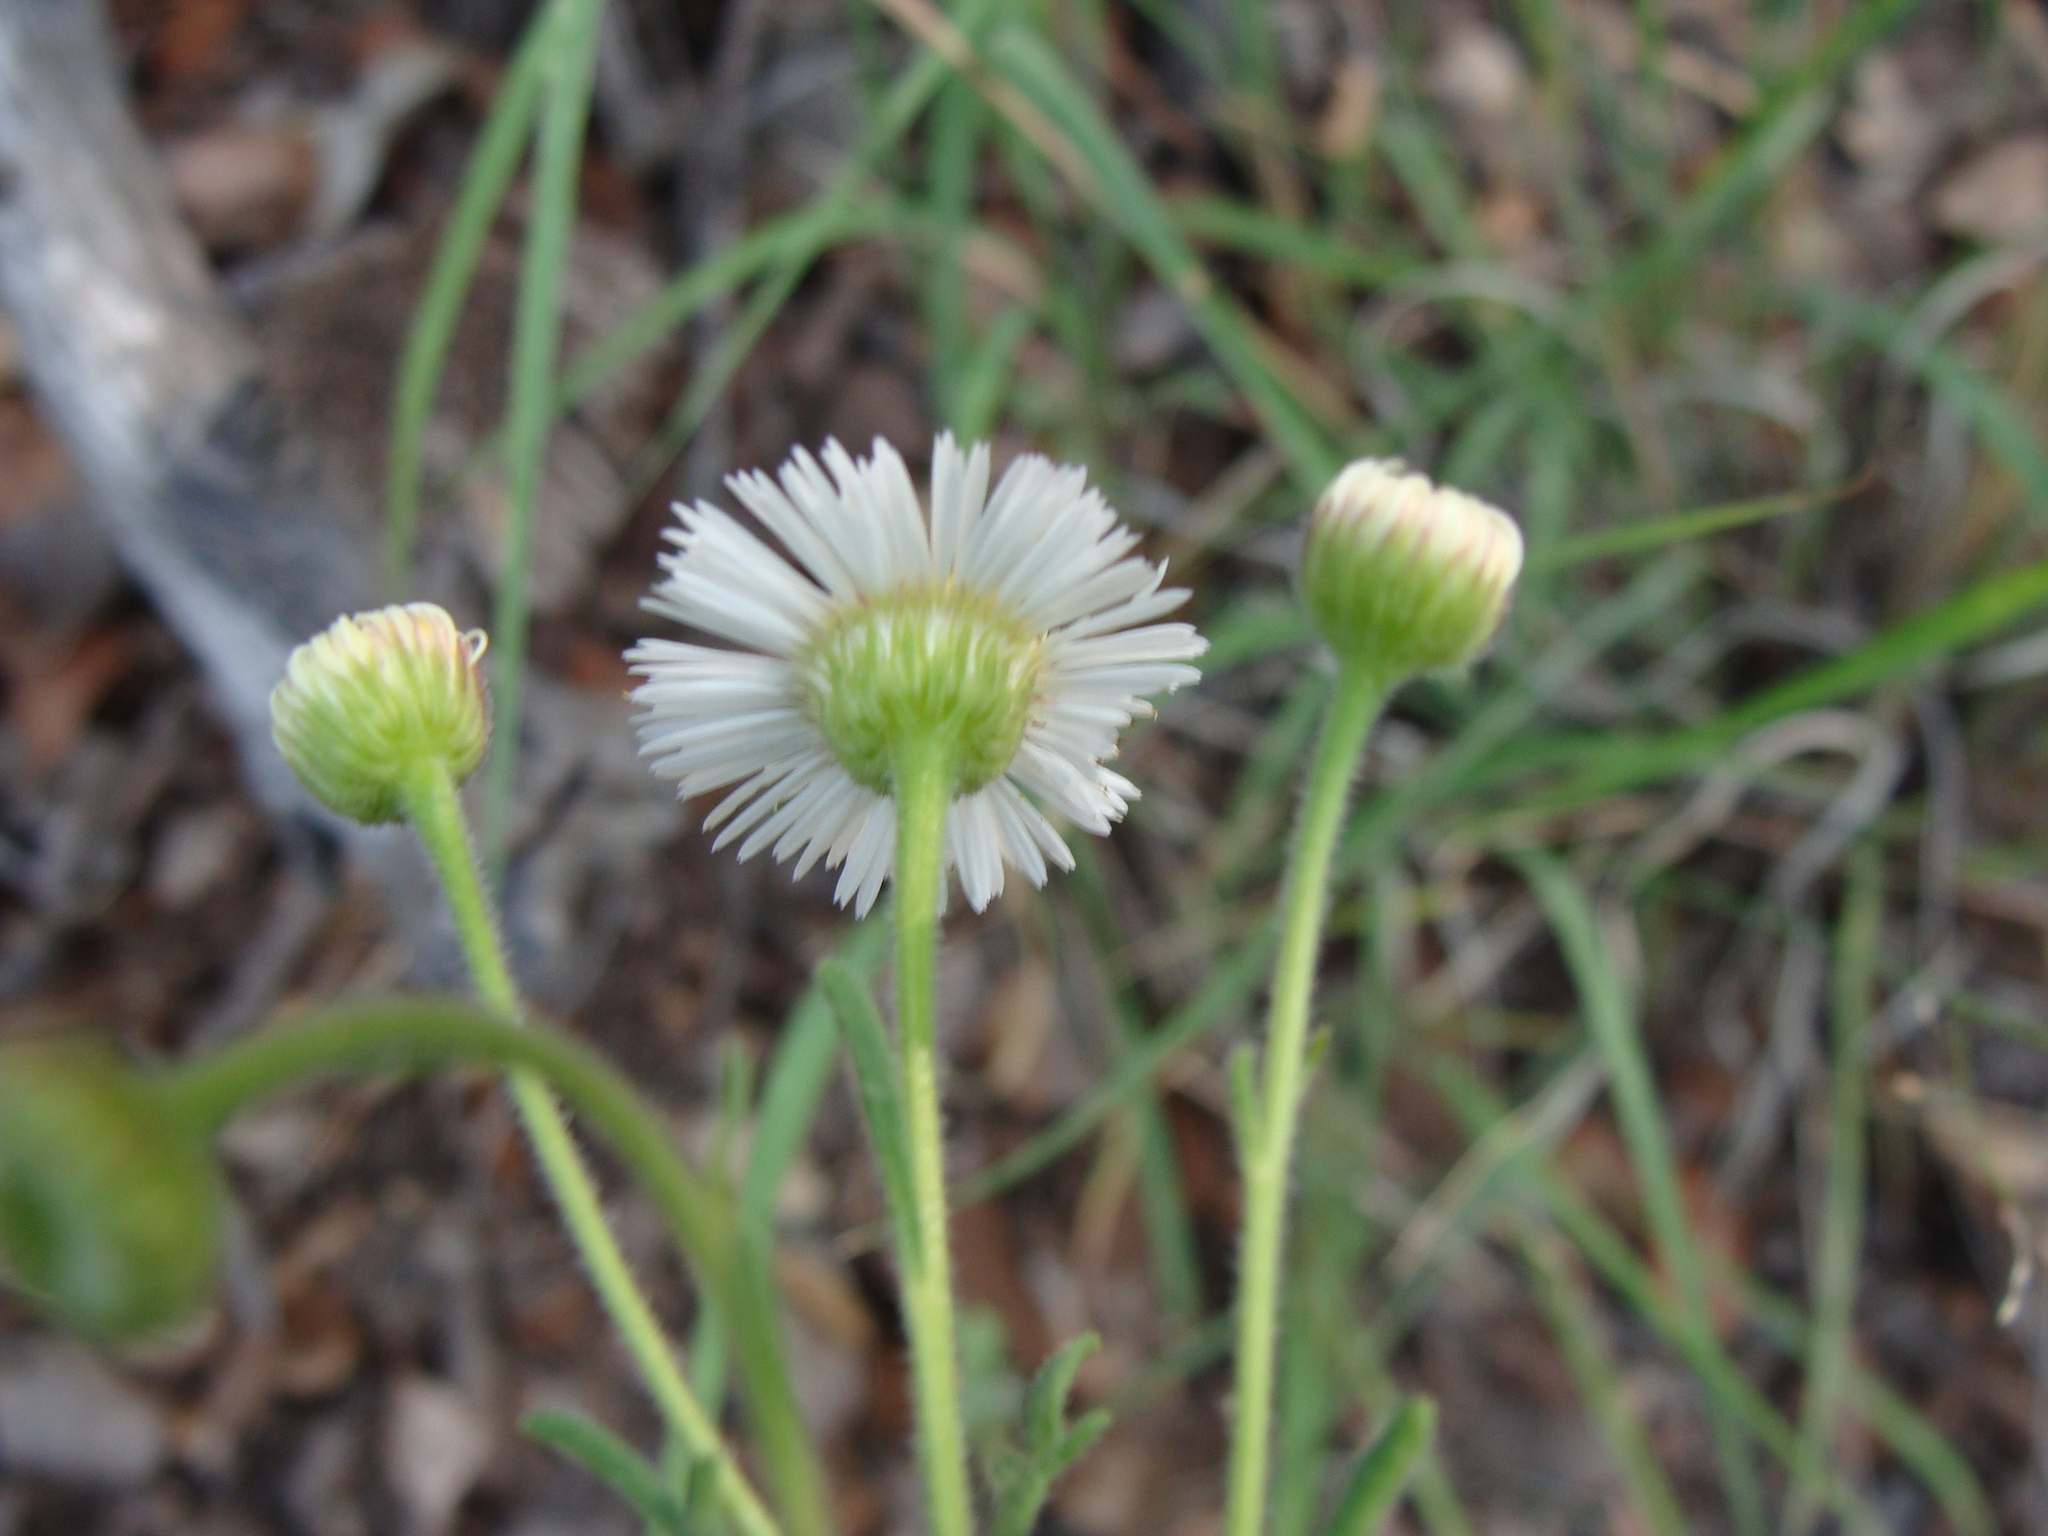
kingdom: Plantae
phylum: Tracheophyta
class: Magnoliopsida
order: Asterales
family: Asteraceae
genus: Erigeron
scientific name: Erigeron neomexicanus
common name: New mexico fleabane
